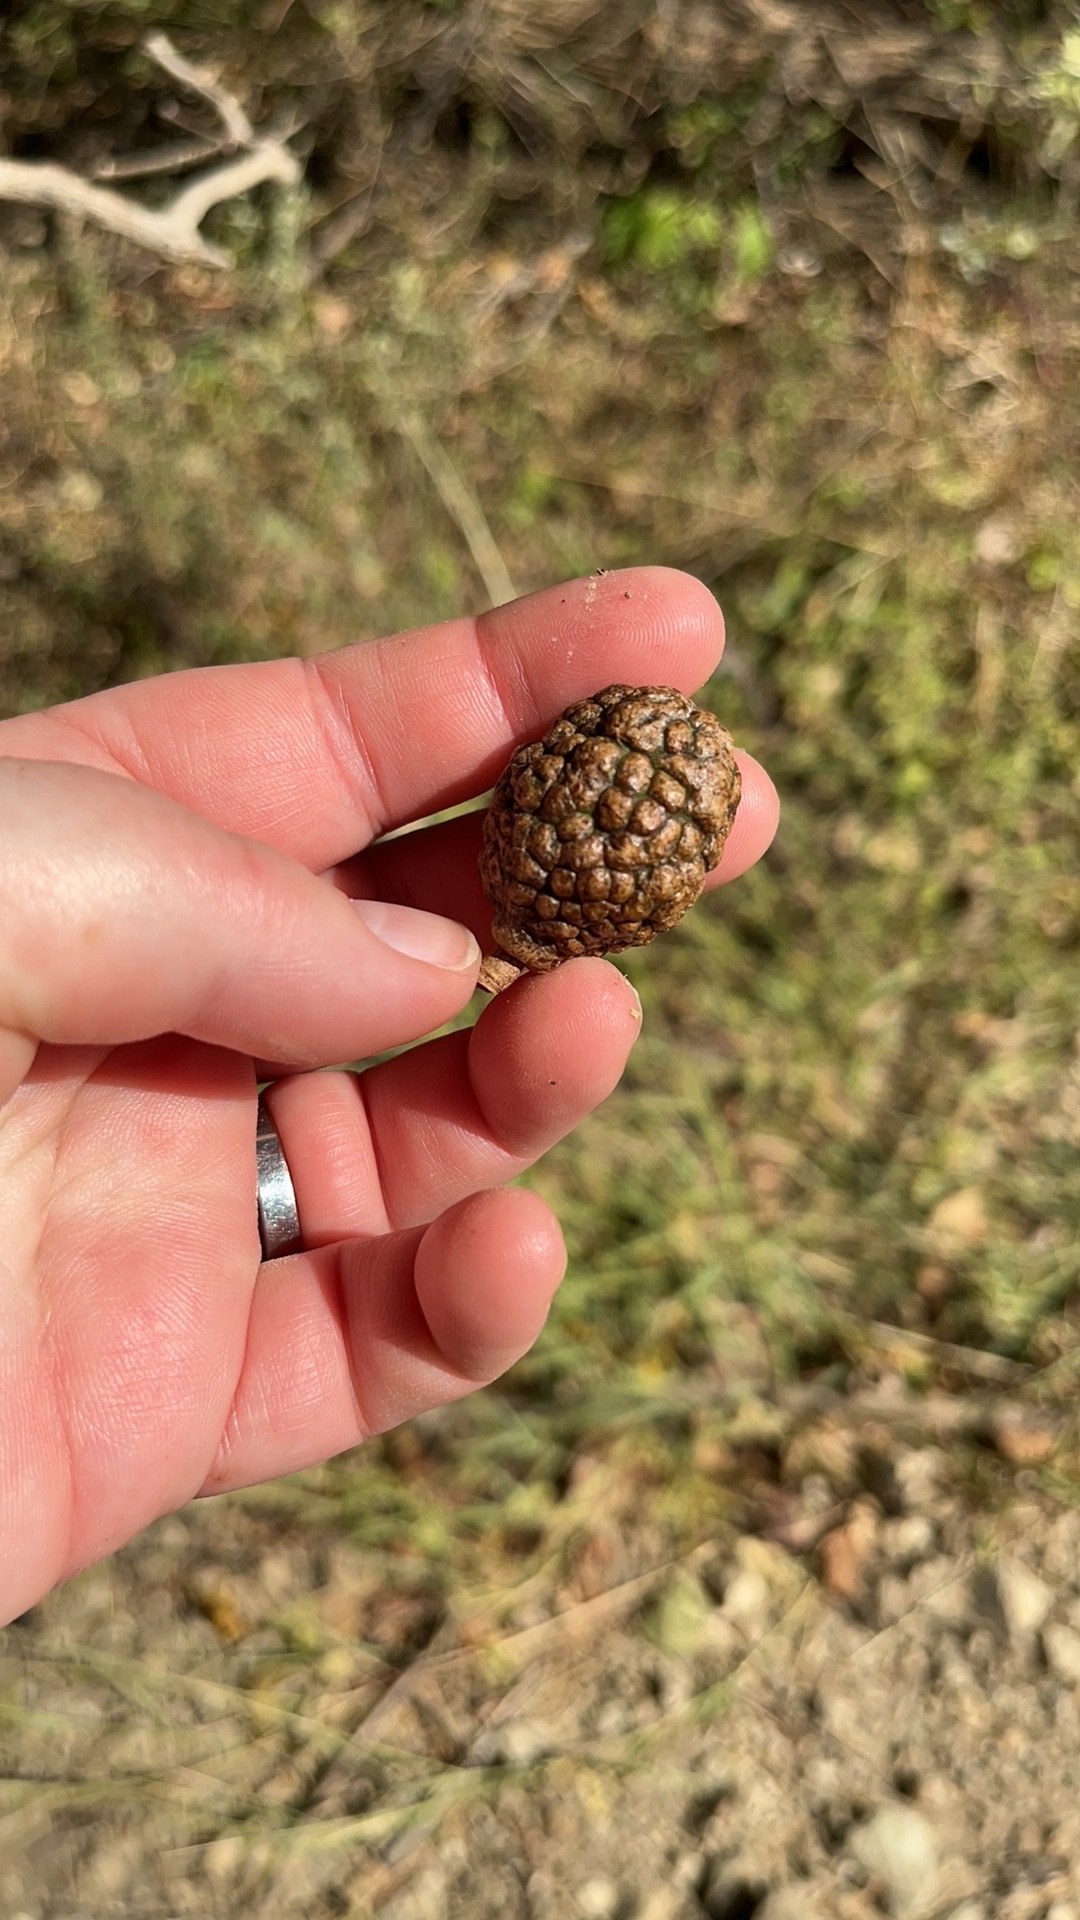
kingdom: Plantae
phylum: Tracheophyta
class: Magnoliopsida
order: Malvales
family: Malvaceae
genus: Guazuma
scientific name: Guazuma ulmifolia
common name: Bastard-cedar
